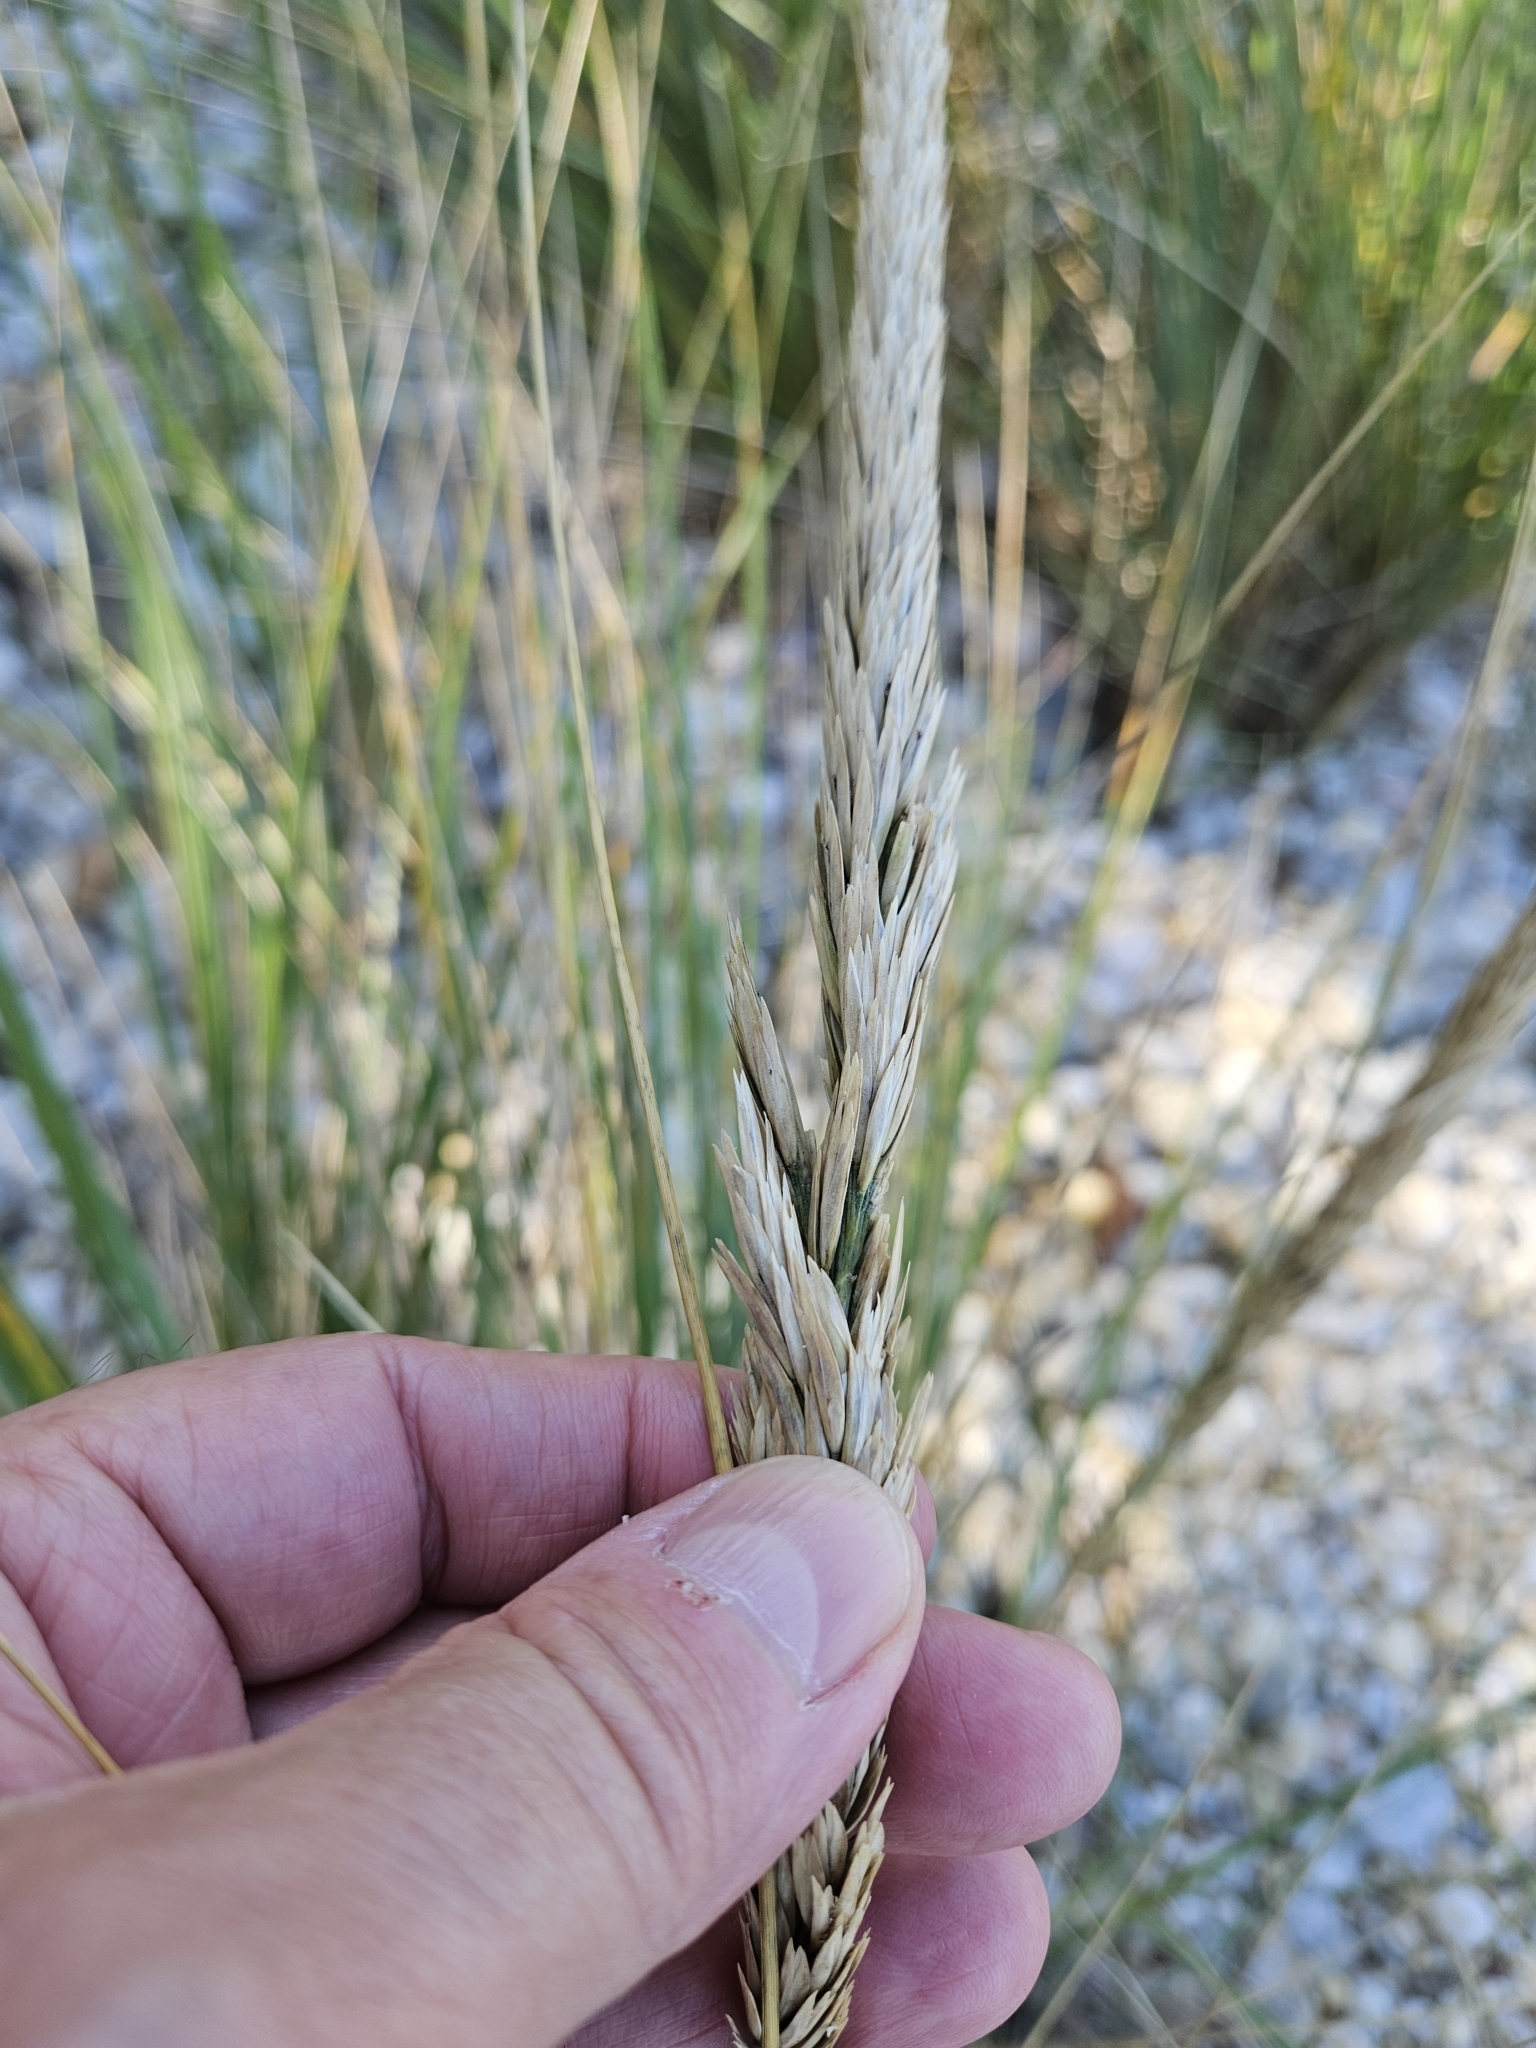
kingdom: Plantae
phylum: Tracheophyta
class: Liliopsida
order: Poales
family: Poaceae
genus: Calamagrostis
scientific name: Calamagrostis breviligulata
